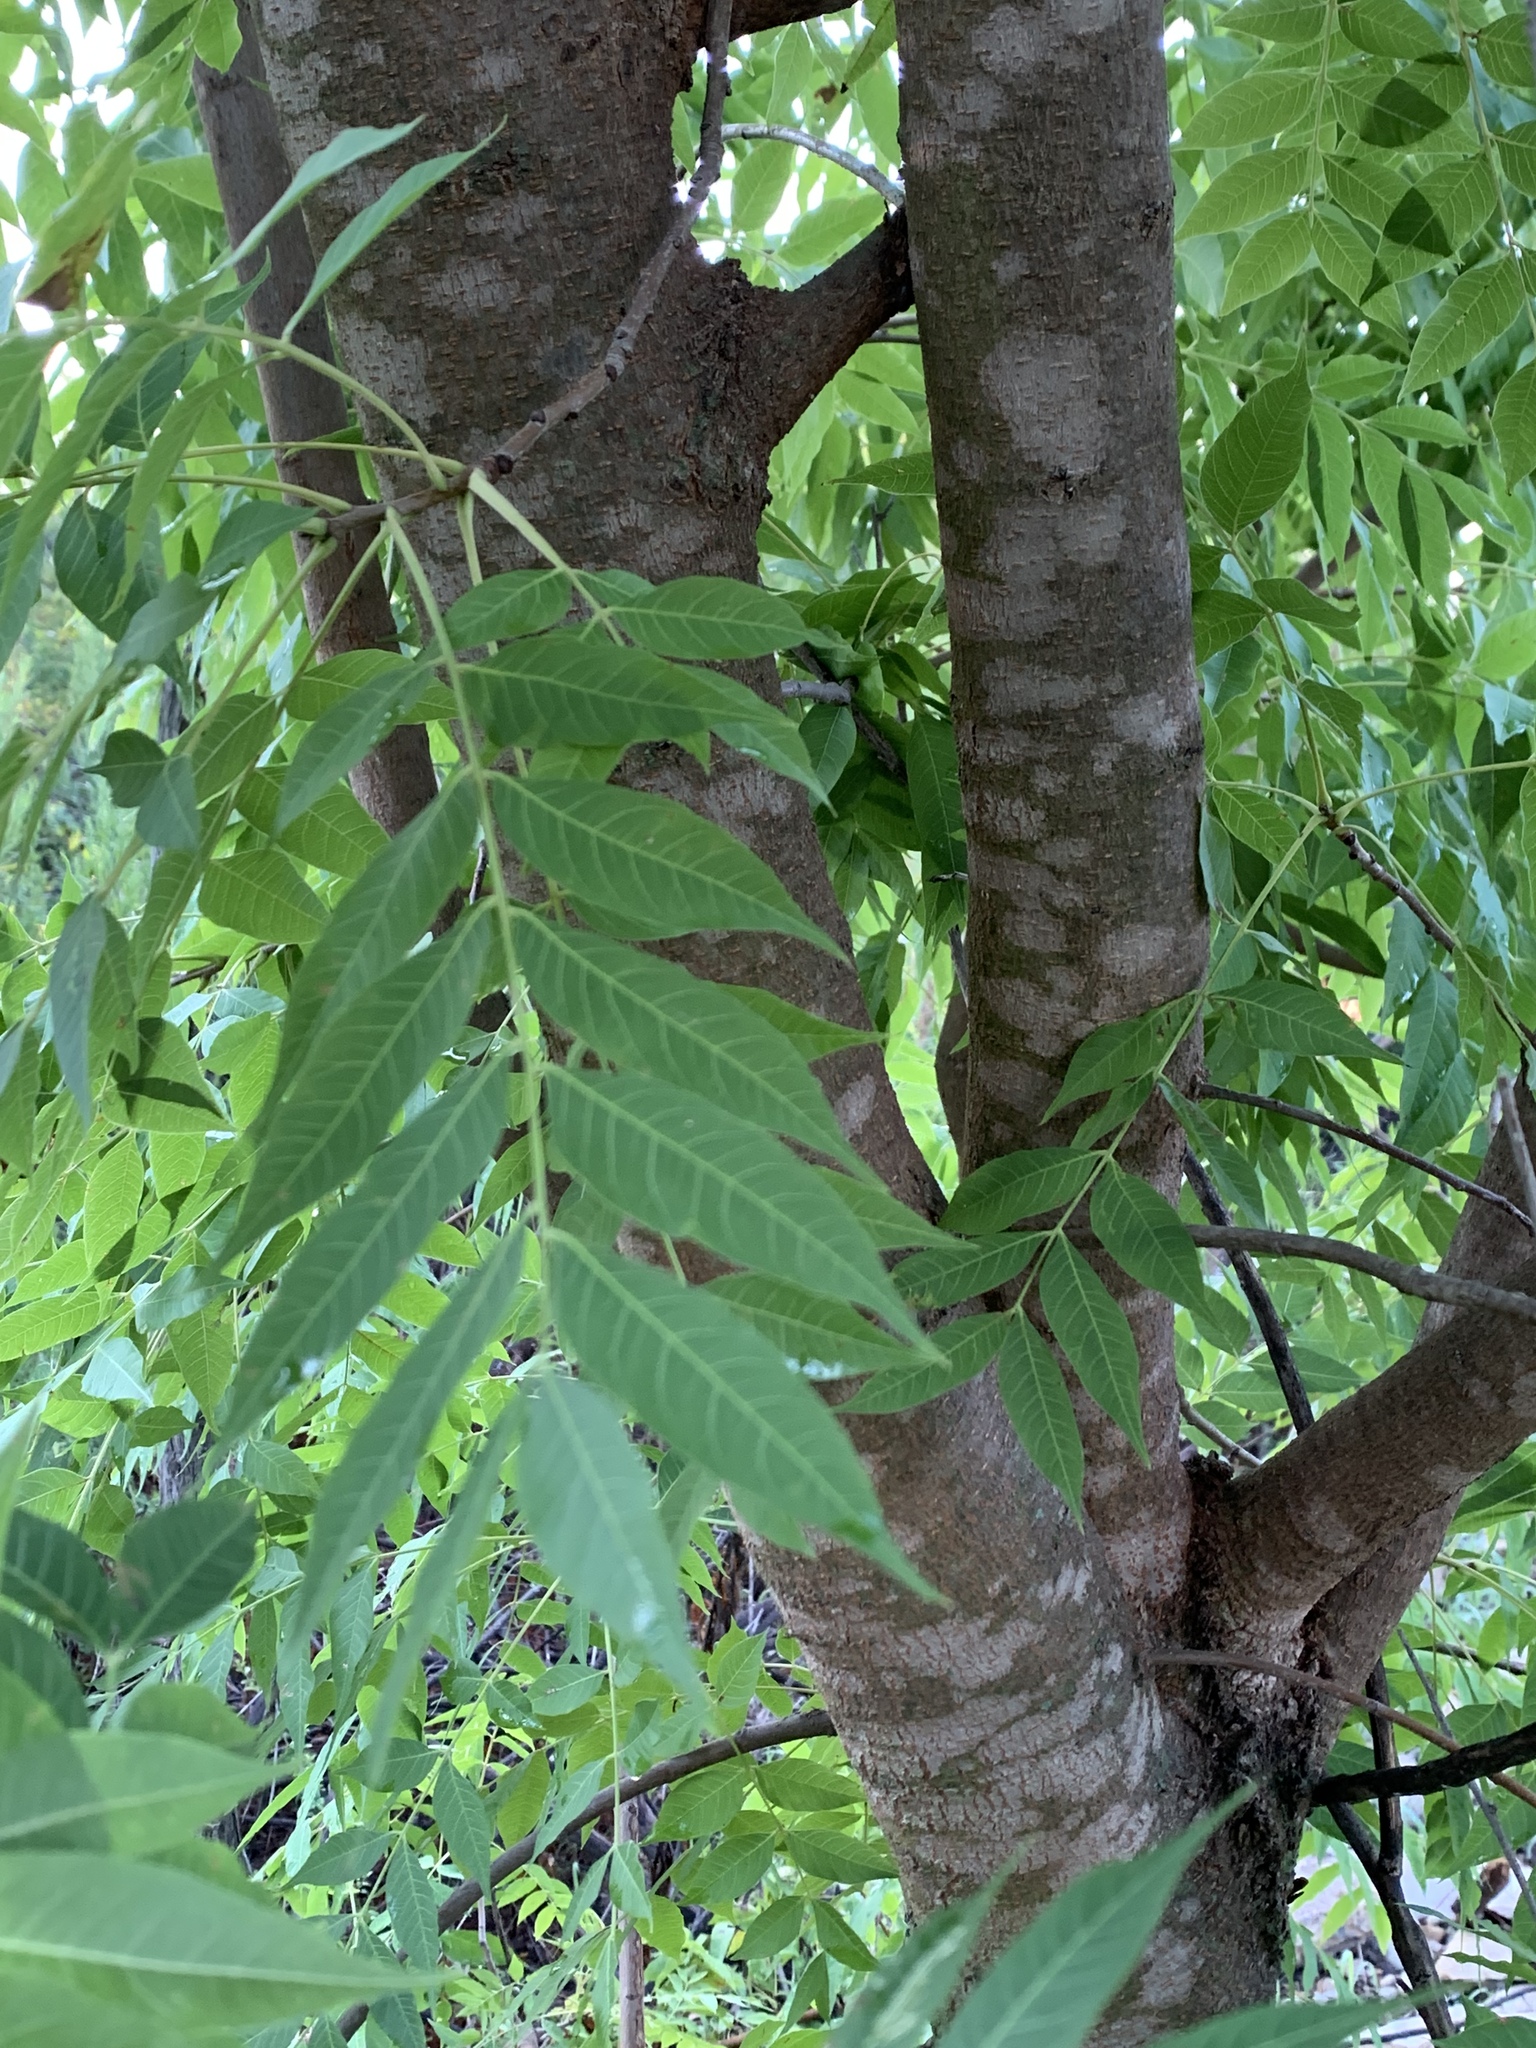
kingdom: Plantae
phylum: Tracheophyta
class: Magnoliopsida
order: Sapindales
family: Sapindaceae
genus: Sapindus
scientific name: Sapindus drummondii
